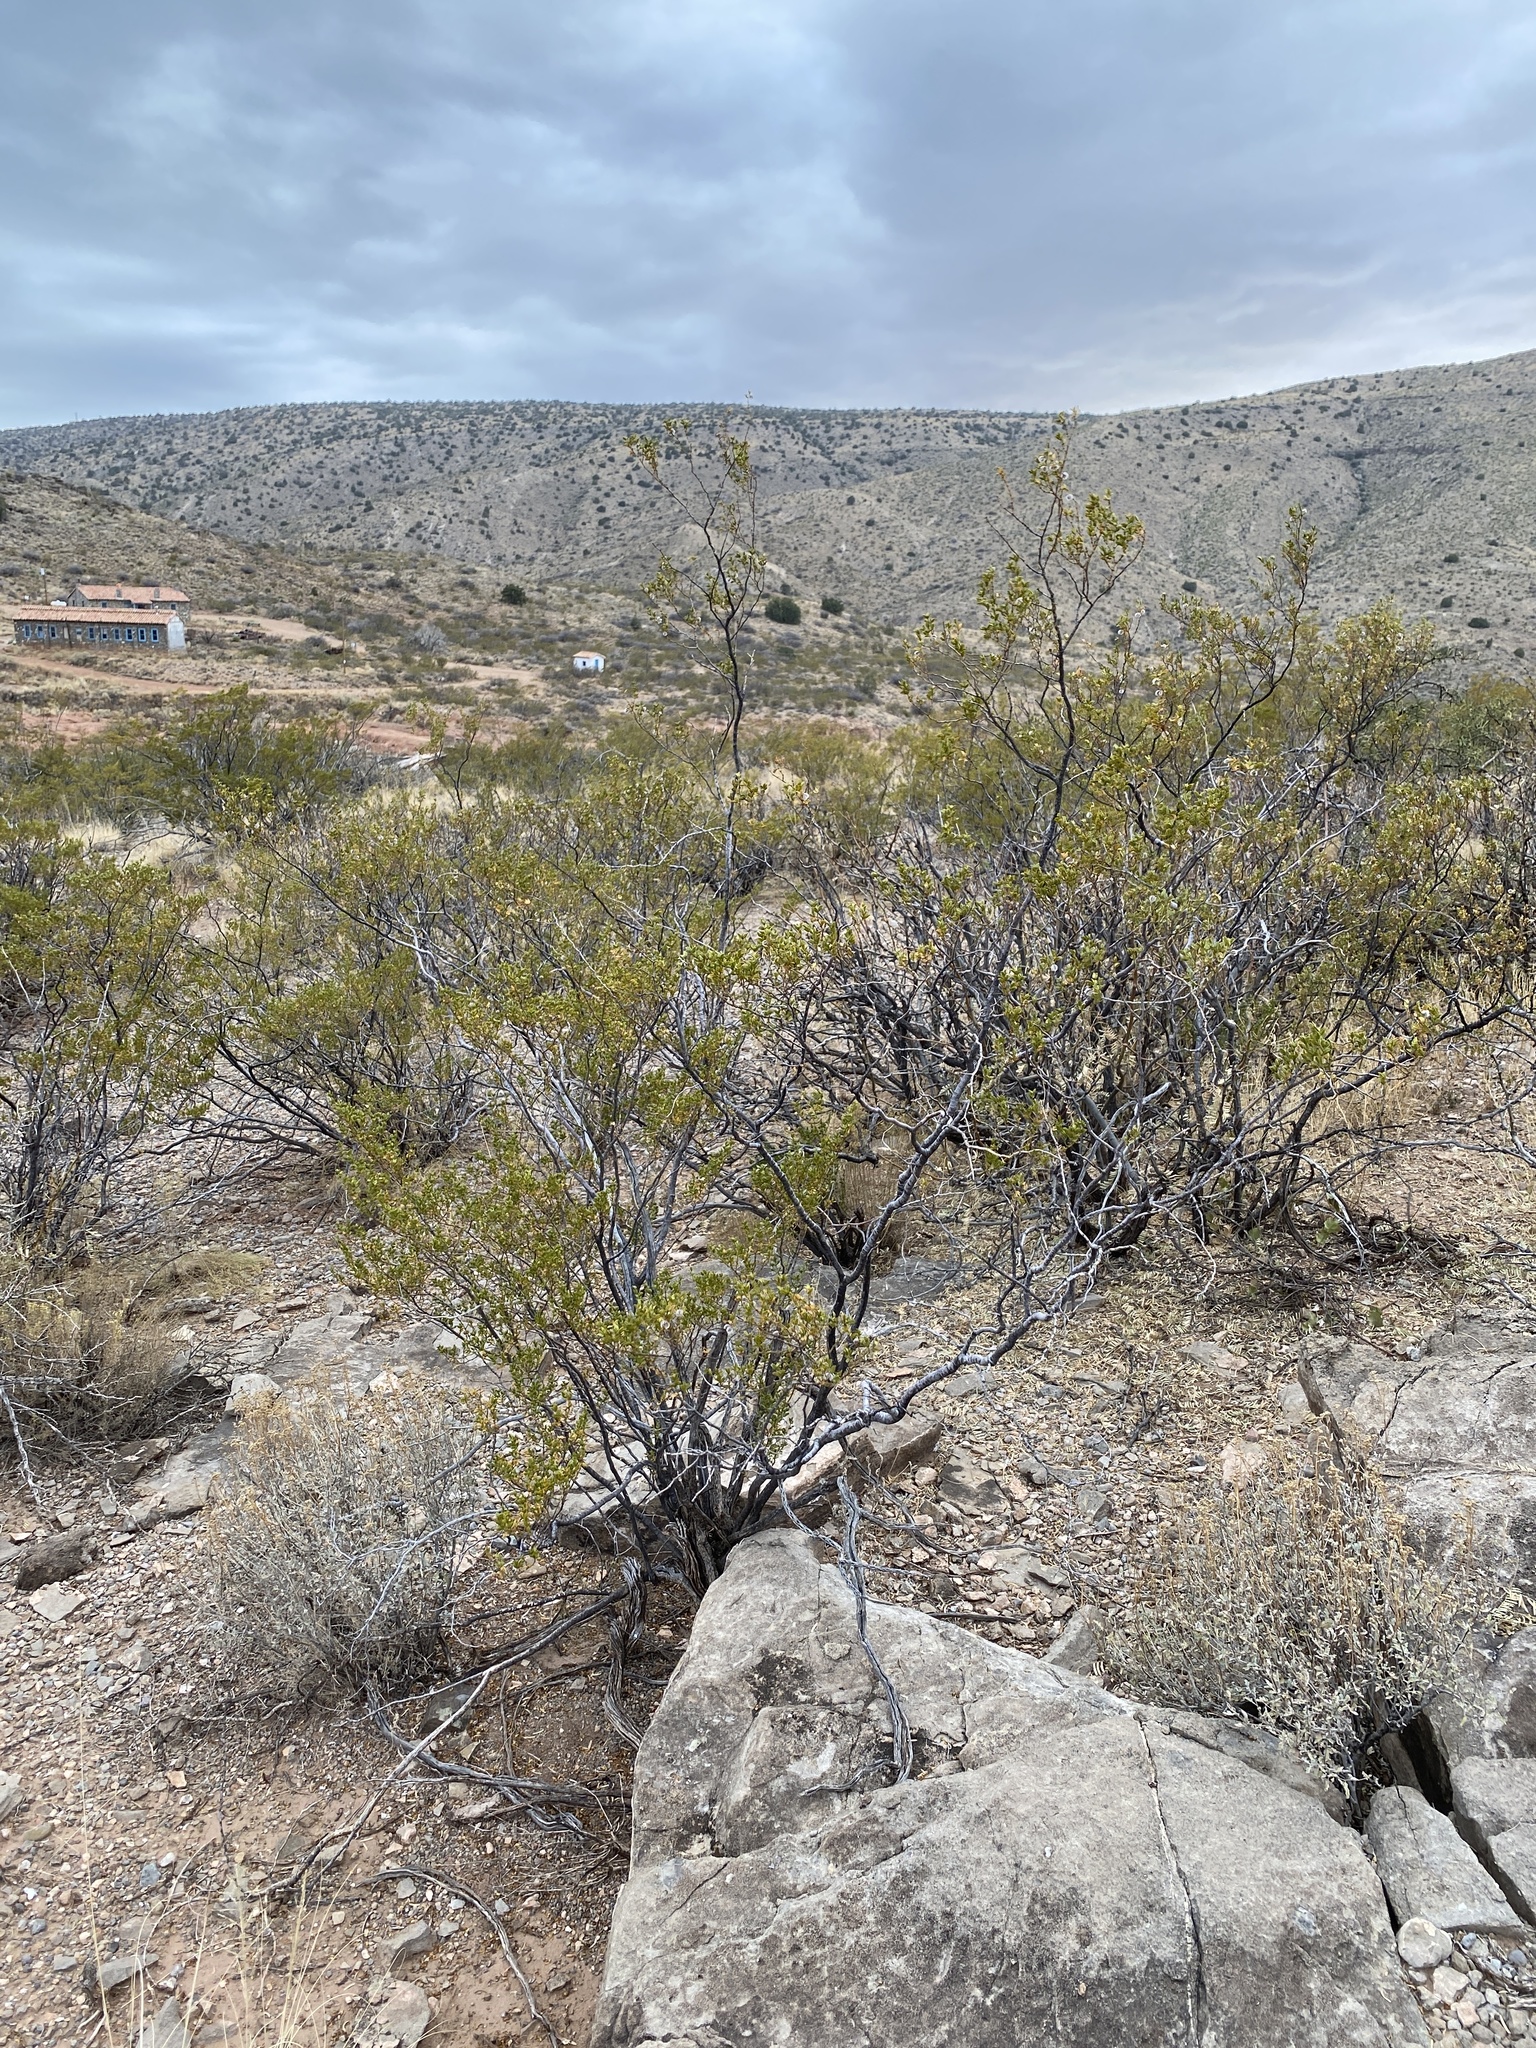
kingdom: Plantae
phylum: Tracheophyta
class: Magnoliopsida
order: Zygophyllales
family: Zygophyllaceae
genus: Larrea
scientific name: Larrea tridentata
